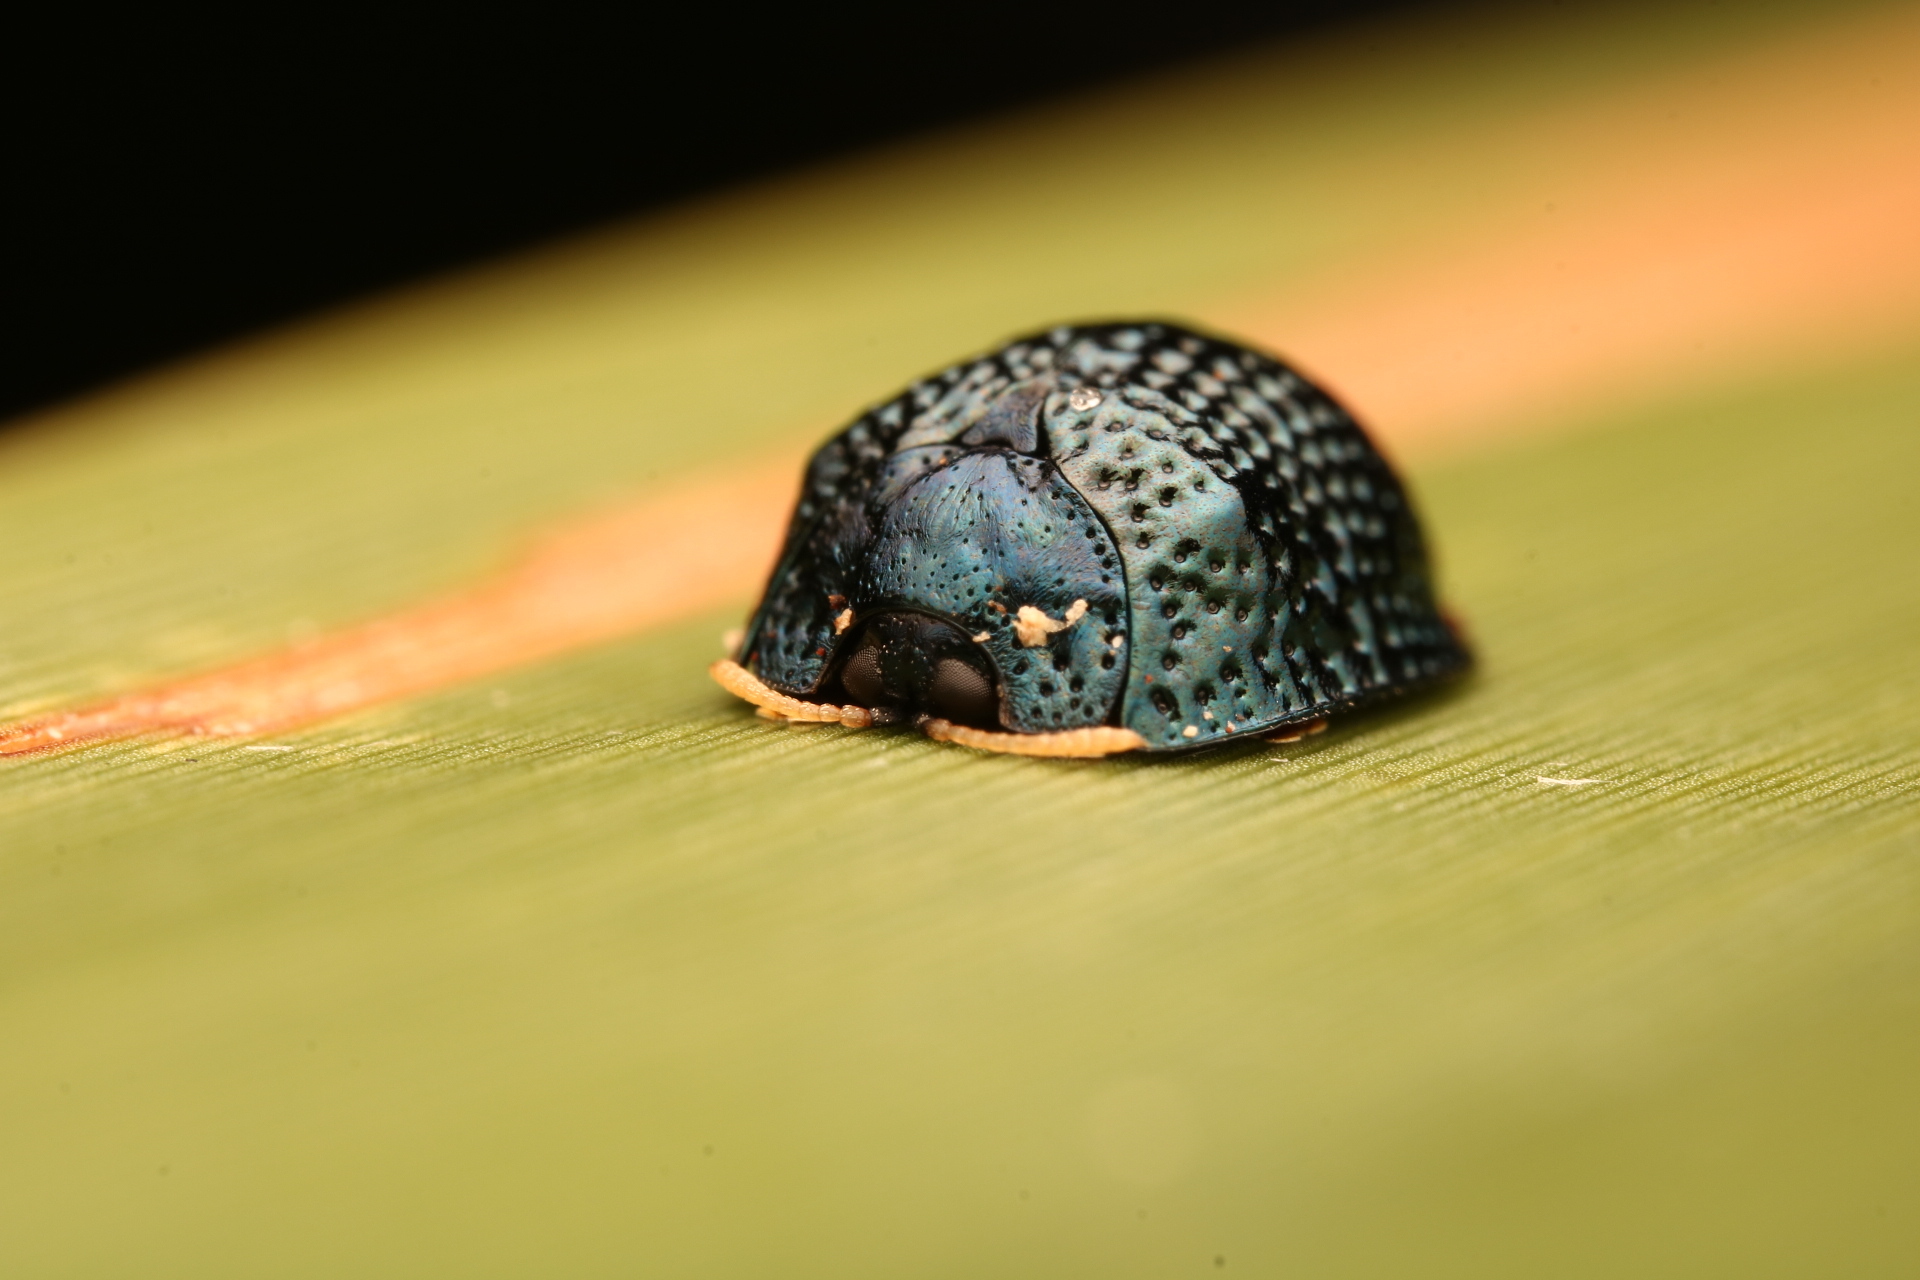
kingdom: Animalia
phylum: Arthropoda
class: Insecta
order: Coleoptera
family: Chrysomelidae
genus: Hemisphaerota
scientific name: Hemisphaerota cyanea
